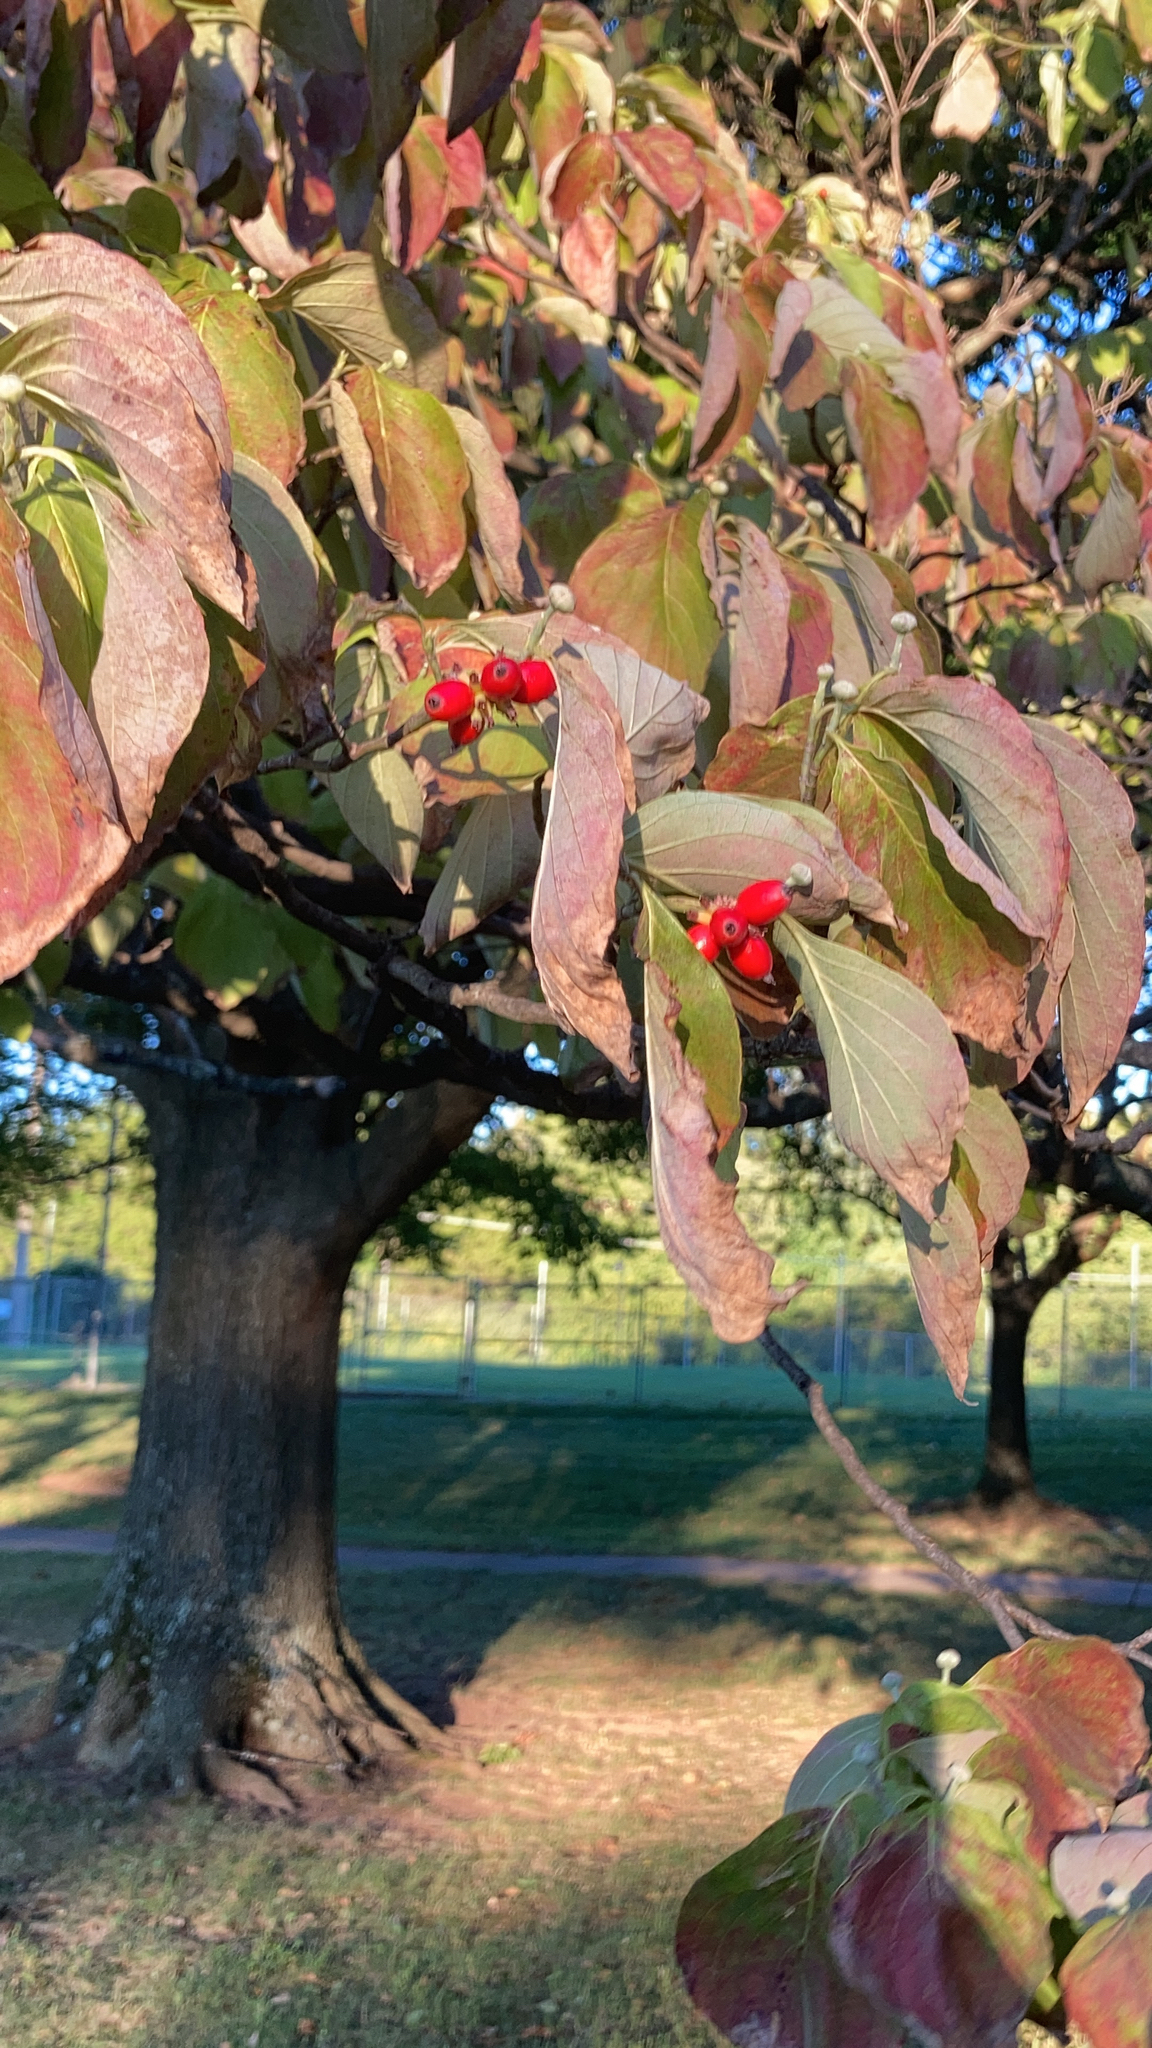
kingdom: Plantae
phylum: Tracheophyta
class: Magnoliopsida
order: Cornales
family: Cornaceae
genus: Cornus
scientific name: Cornus florida
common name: Flowering dogwood
